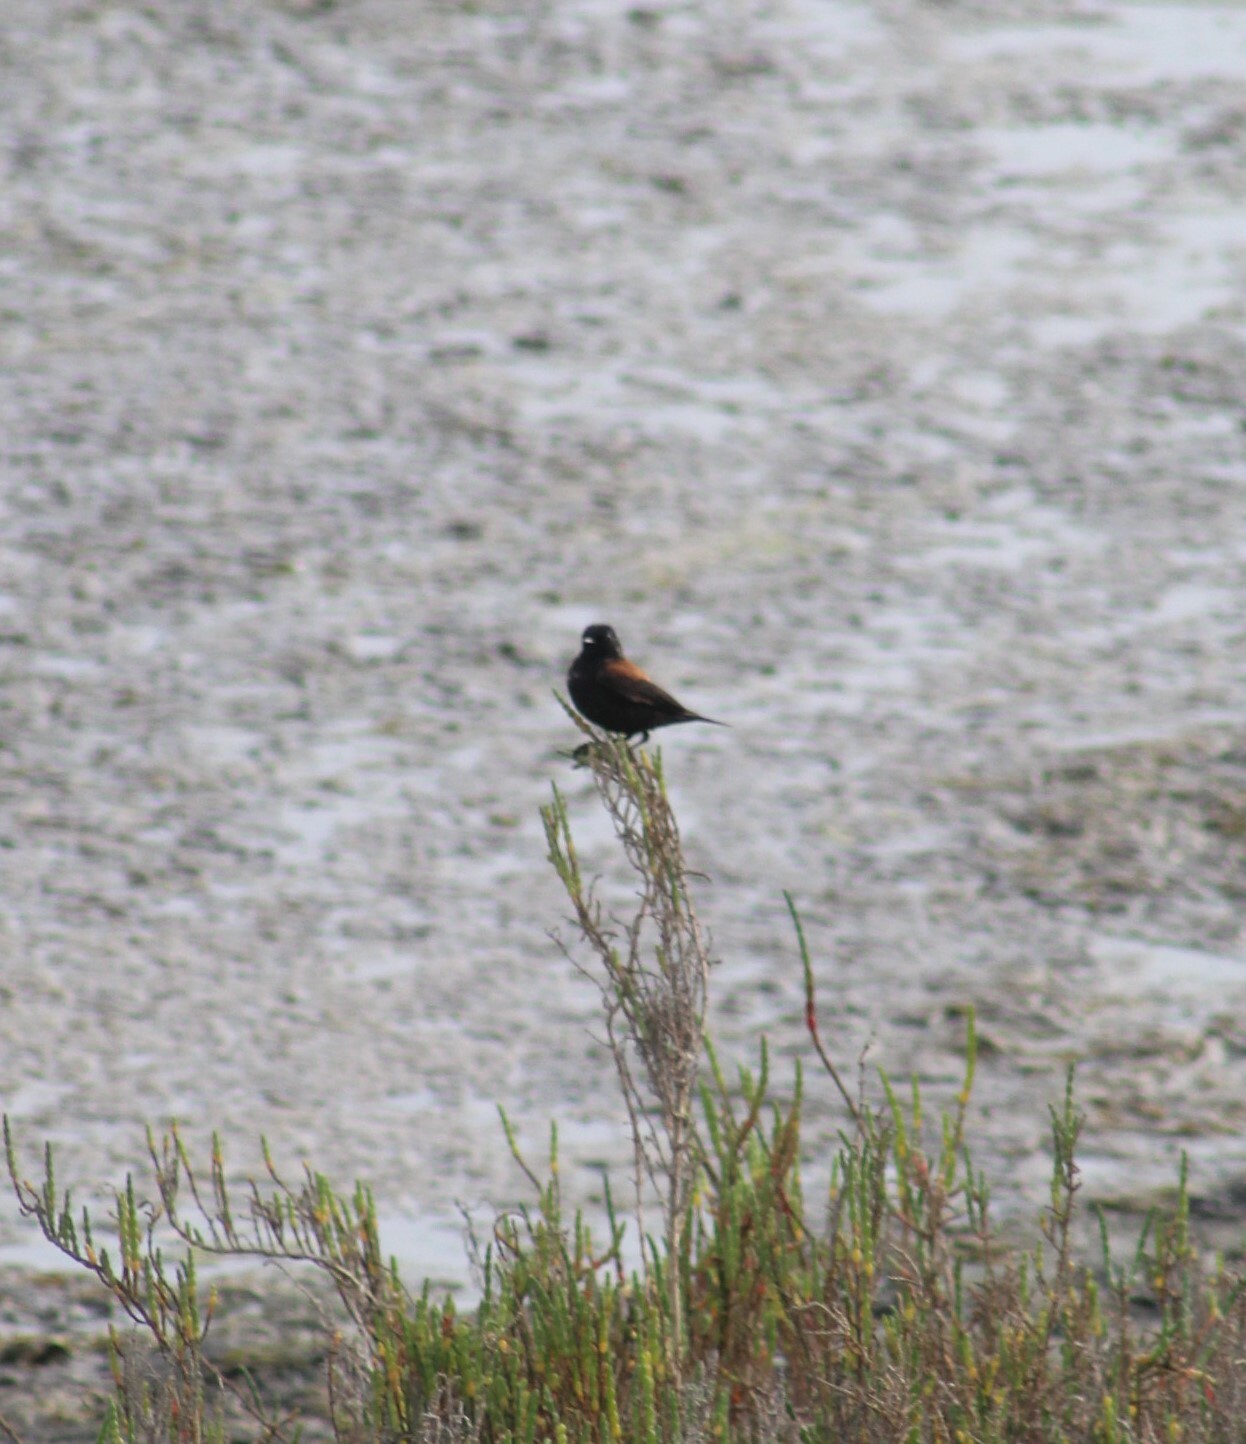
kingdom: Animalia
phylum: Chordata
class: Aves
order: Passeriformes
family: Tyrannidae
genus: Lessonia
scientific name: Lessonia rufa
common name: Austral negrito
